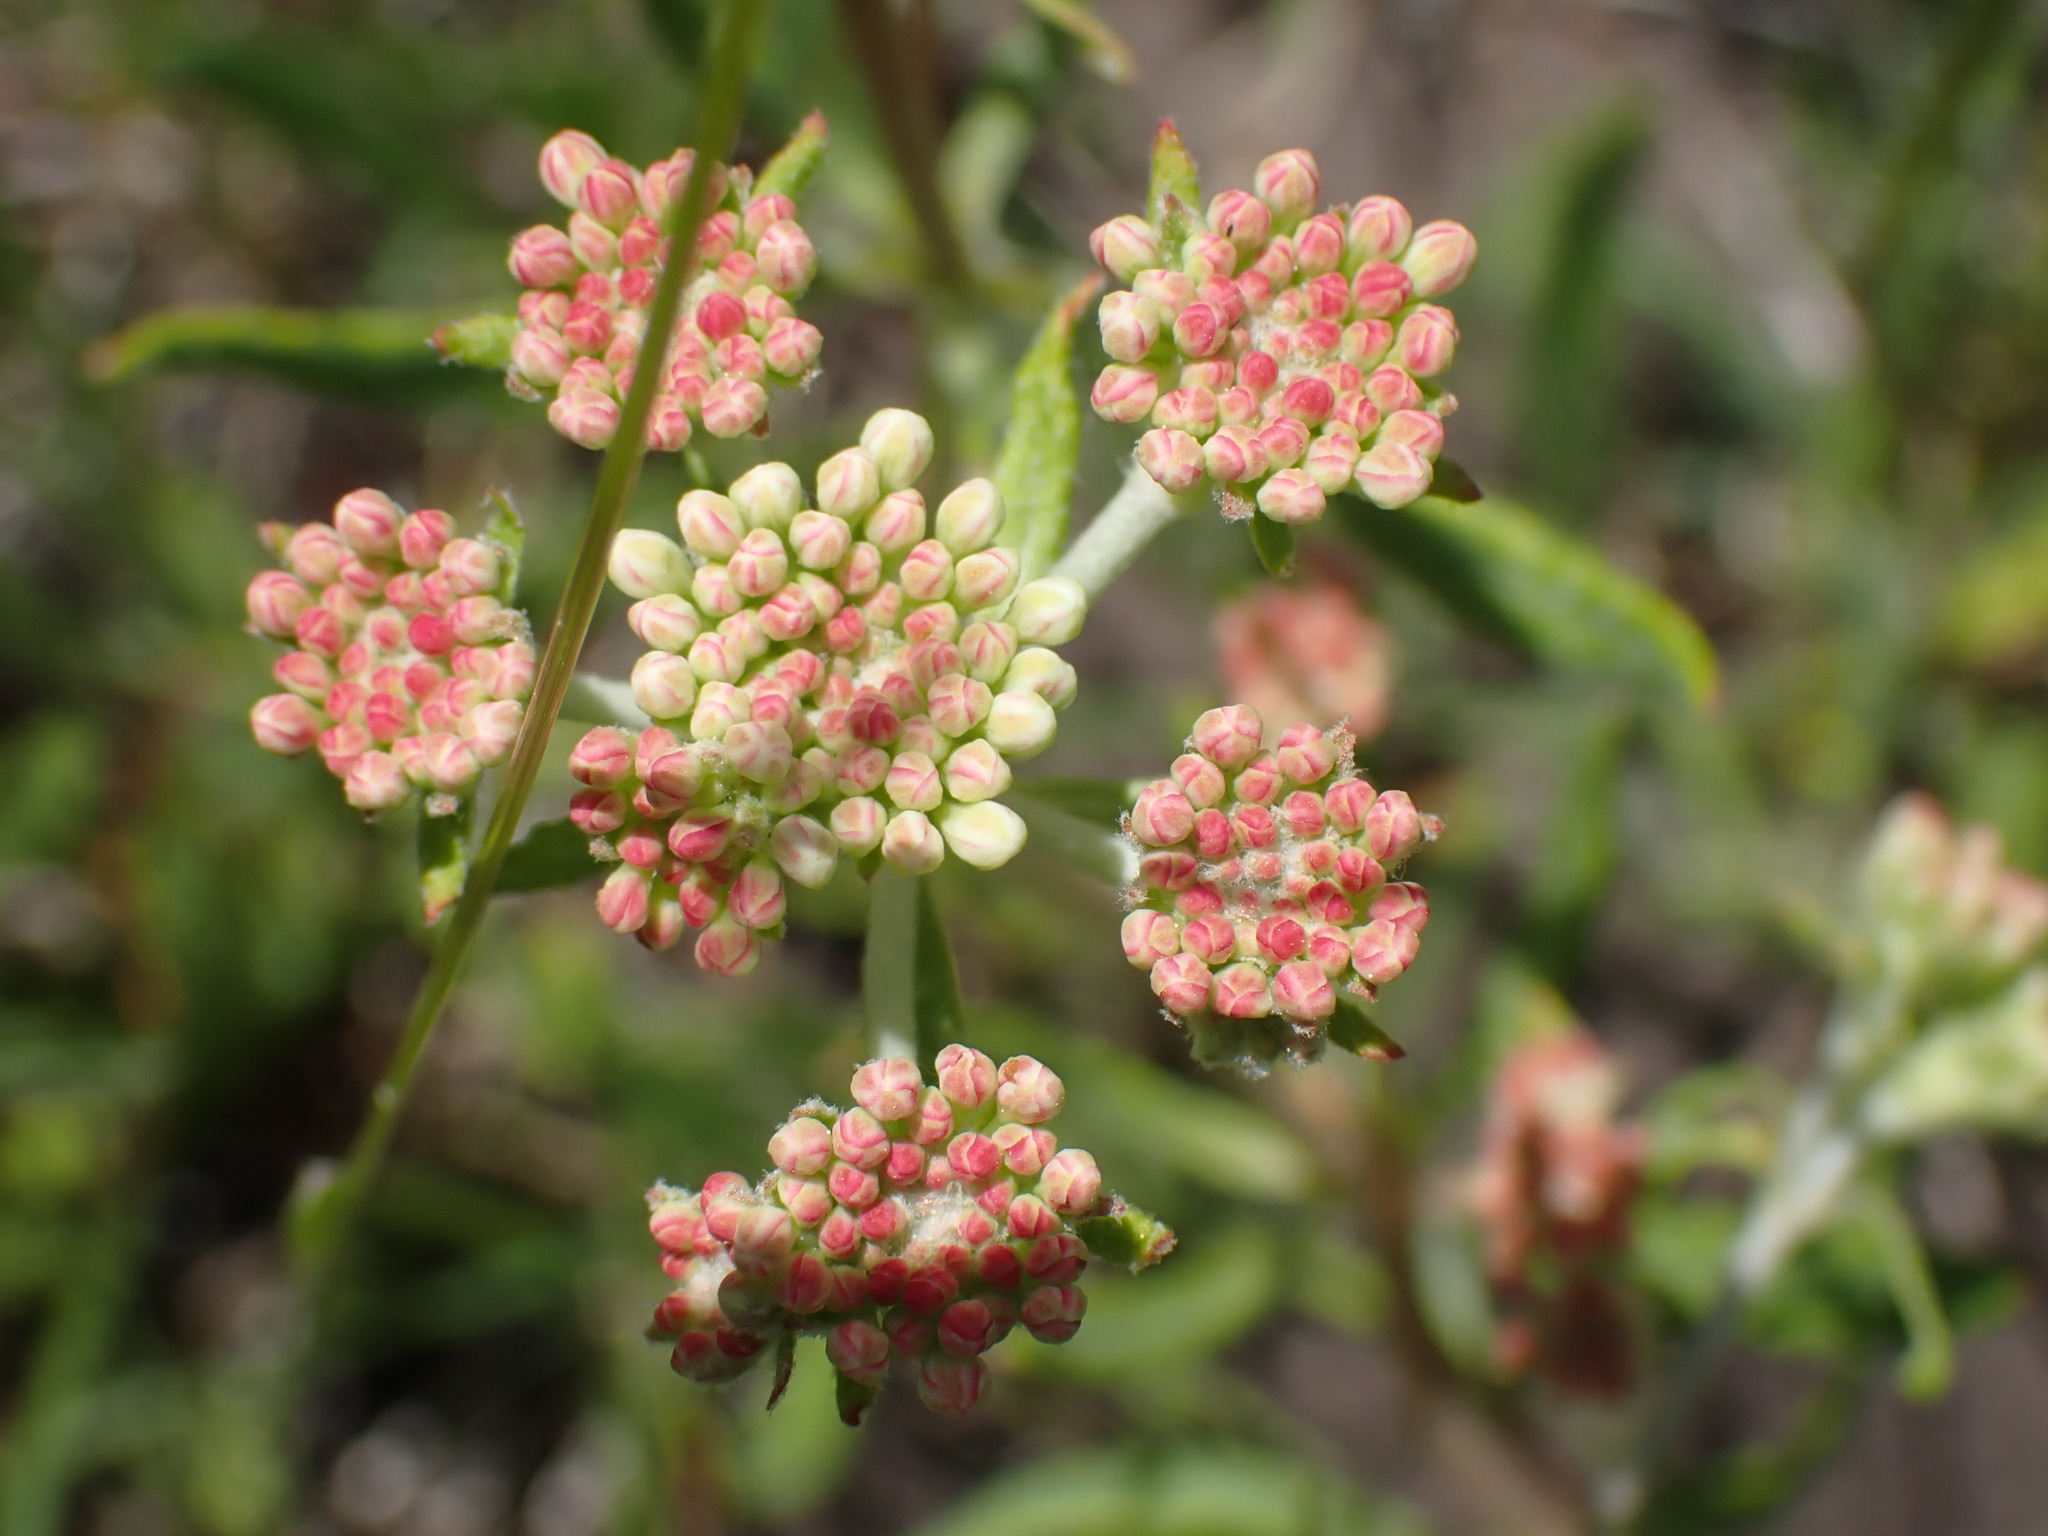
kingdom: Plantae
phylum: Tracheophyta
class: Magnoliopsida
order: Caryophyllales
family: Polygonaceae
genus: Eriogonum
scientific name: Eriogonum heracleoides
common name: Wyeth's buckwheat
